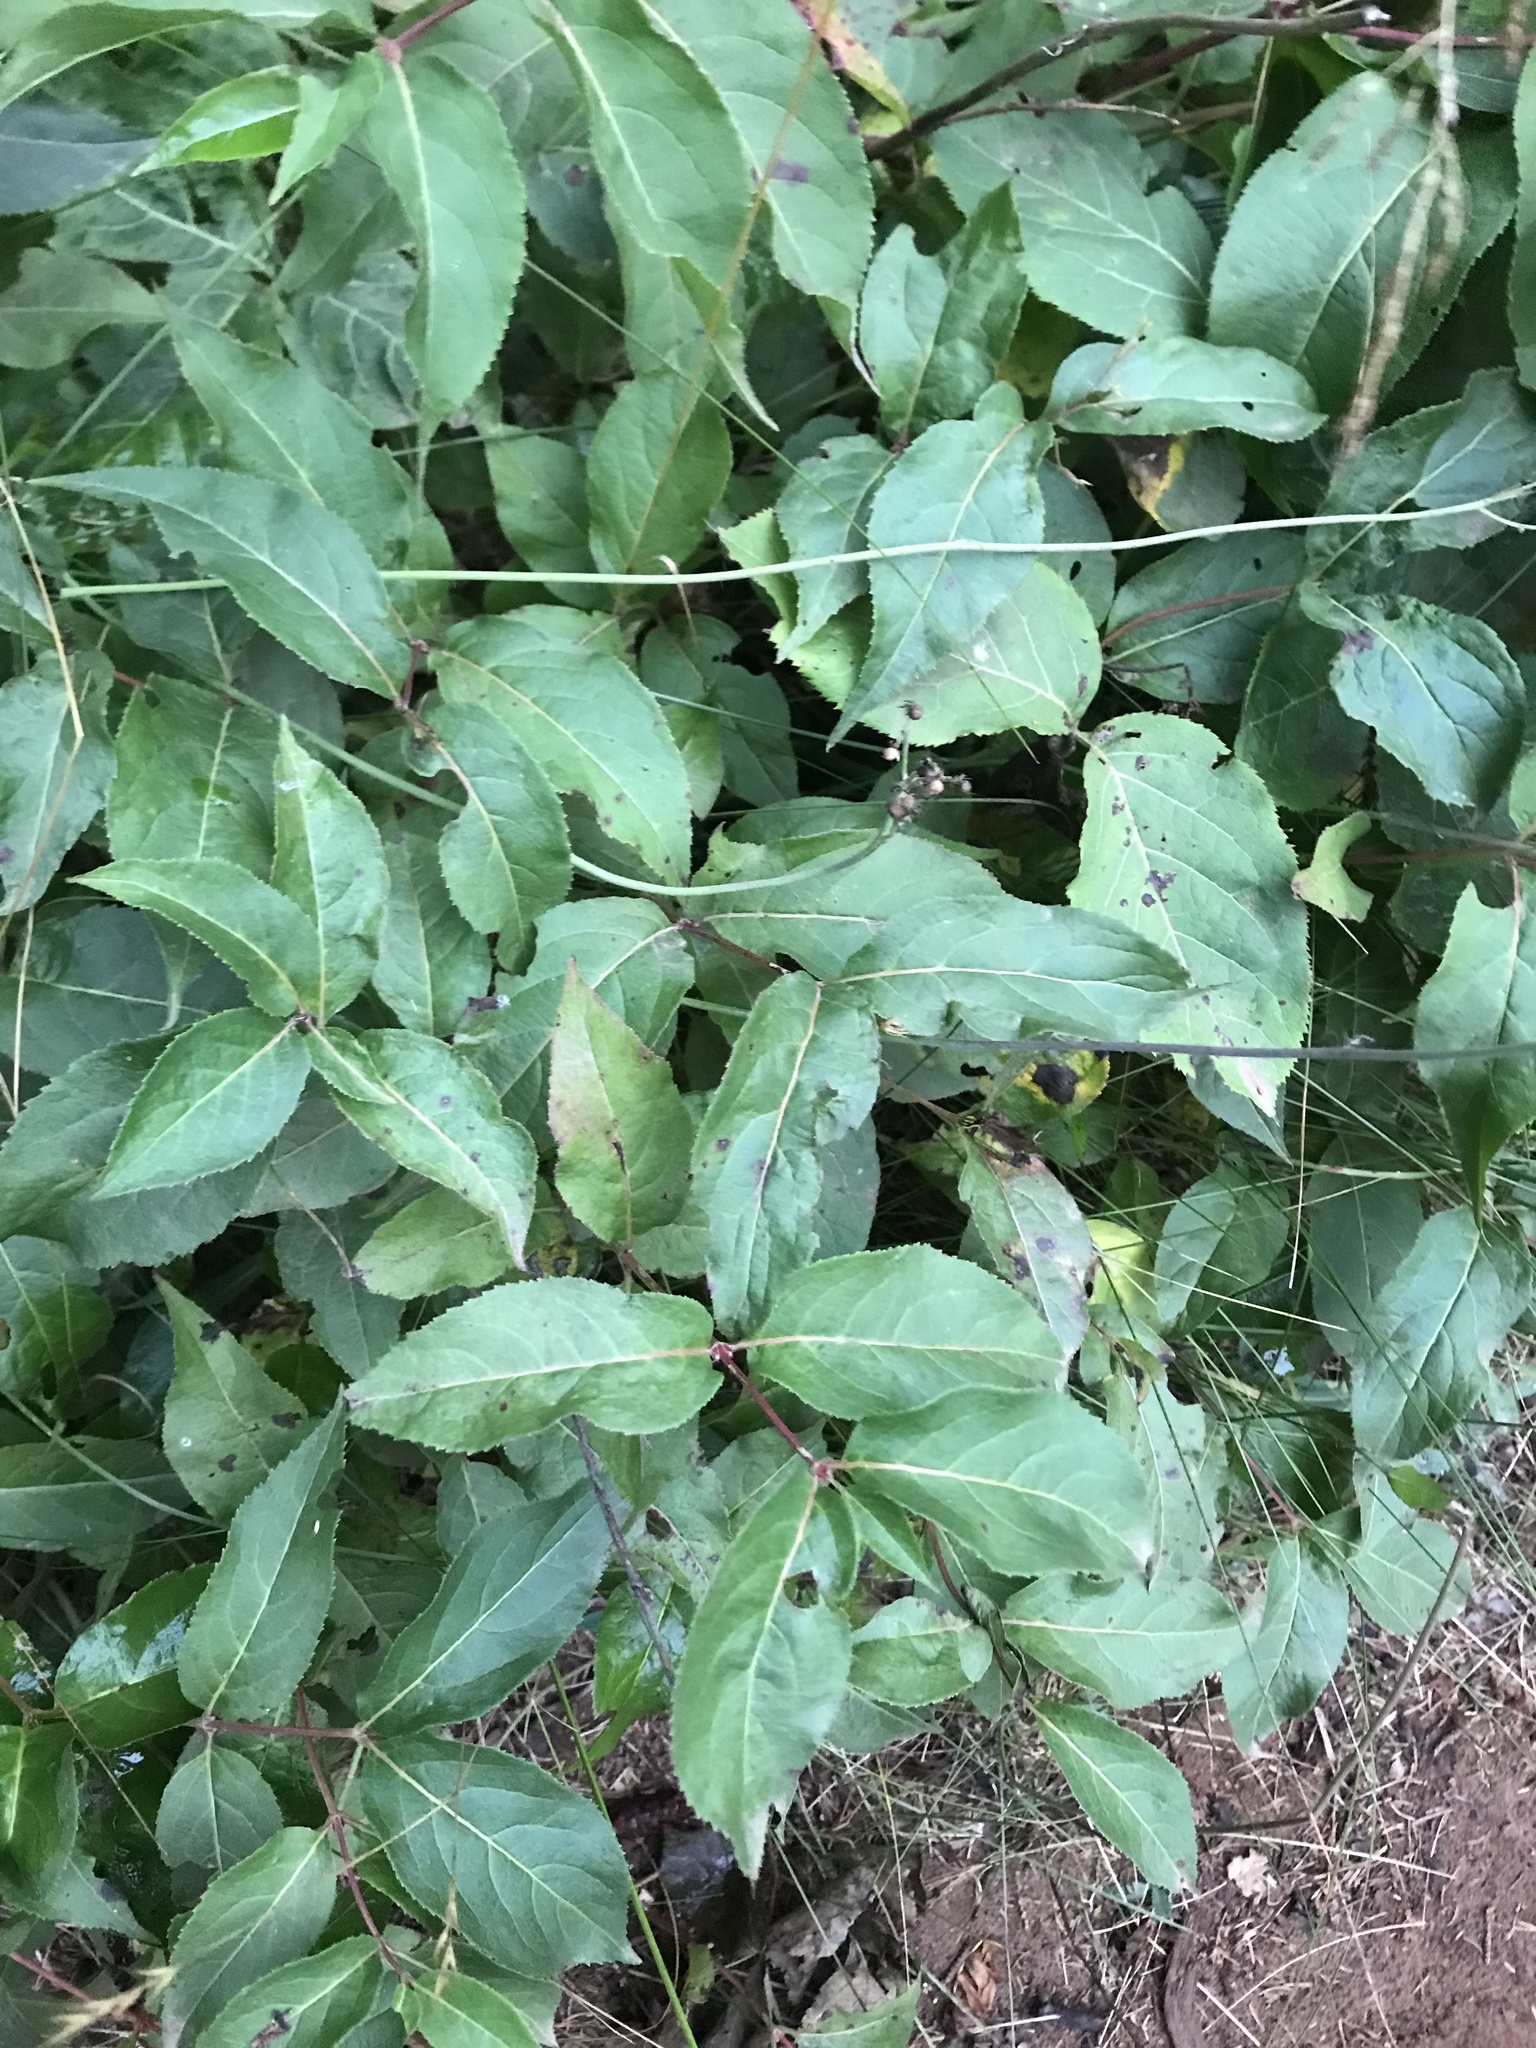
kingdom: Plantae
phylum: Tracheophyta
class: Magnoliopsida
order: Dipsacales
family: Caprifoliaceae
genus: Diervilla
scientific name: Diervilla lonicera
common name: Bush-honeysuckle
